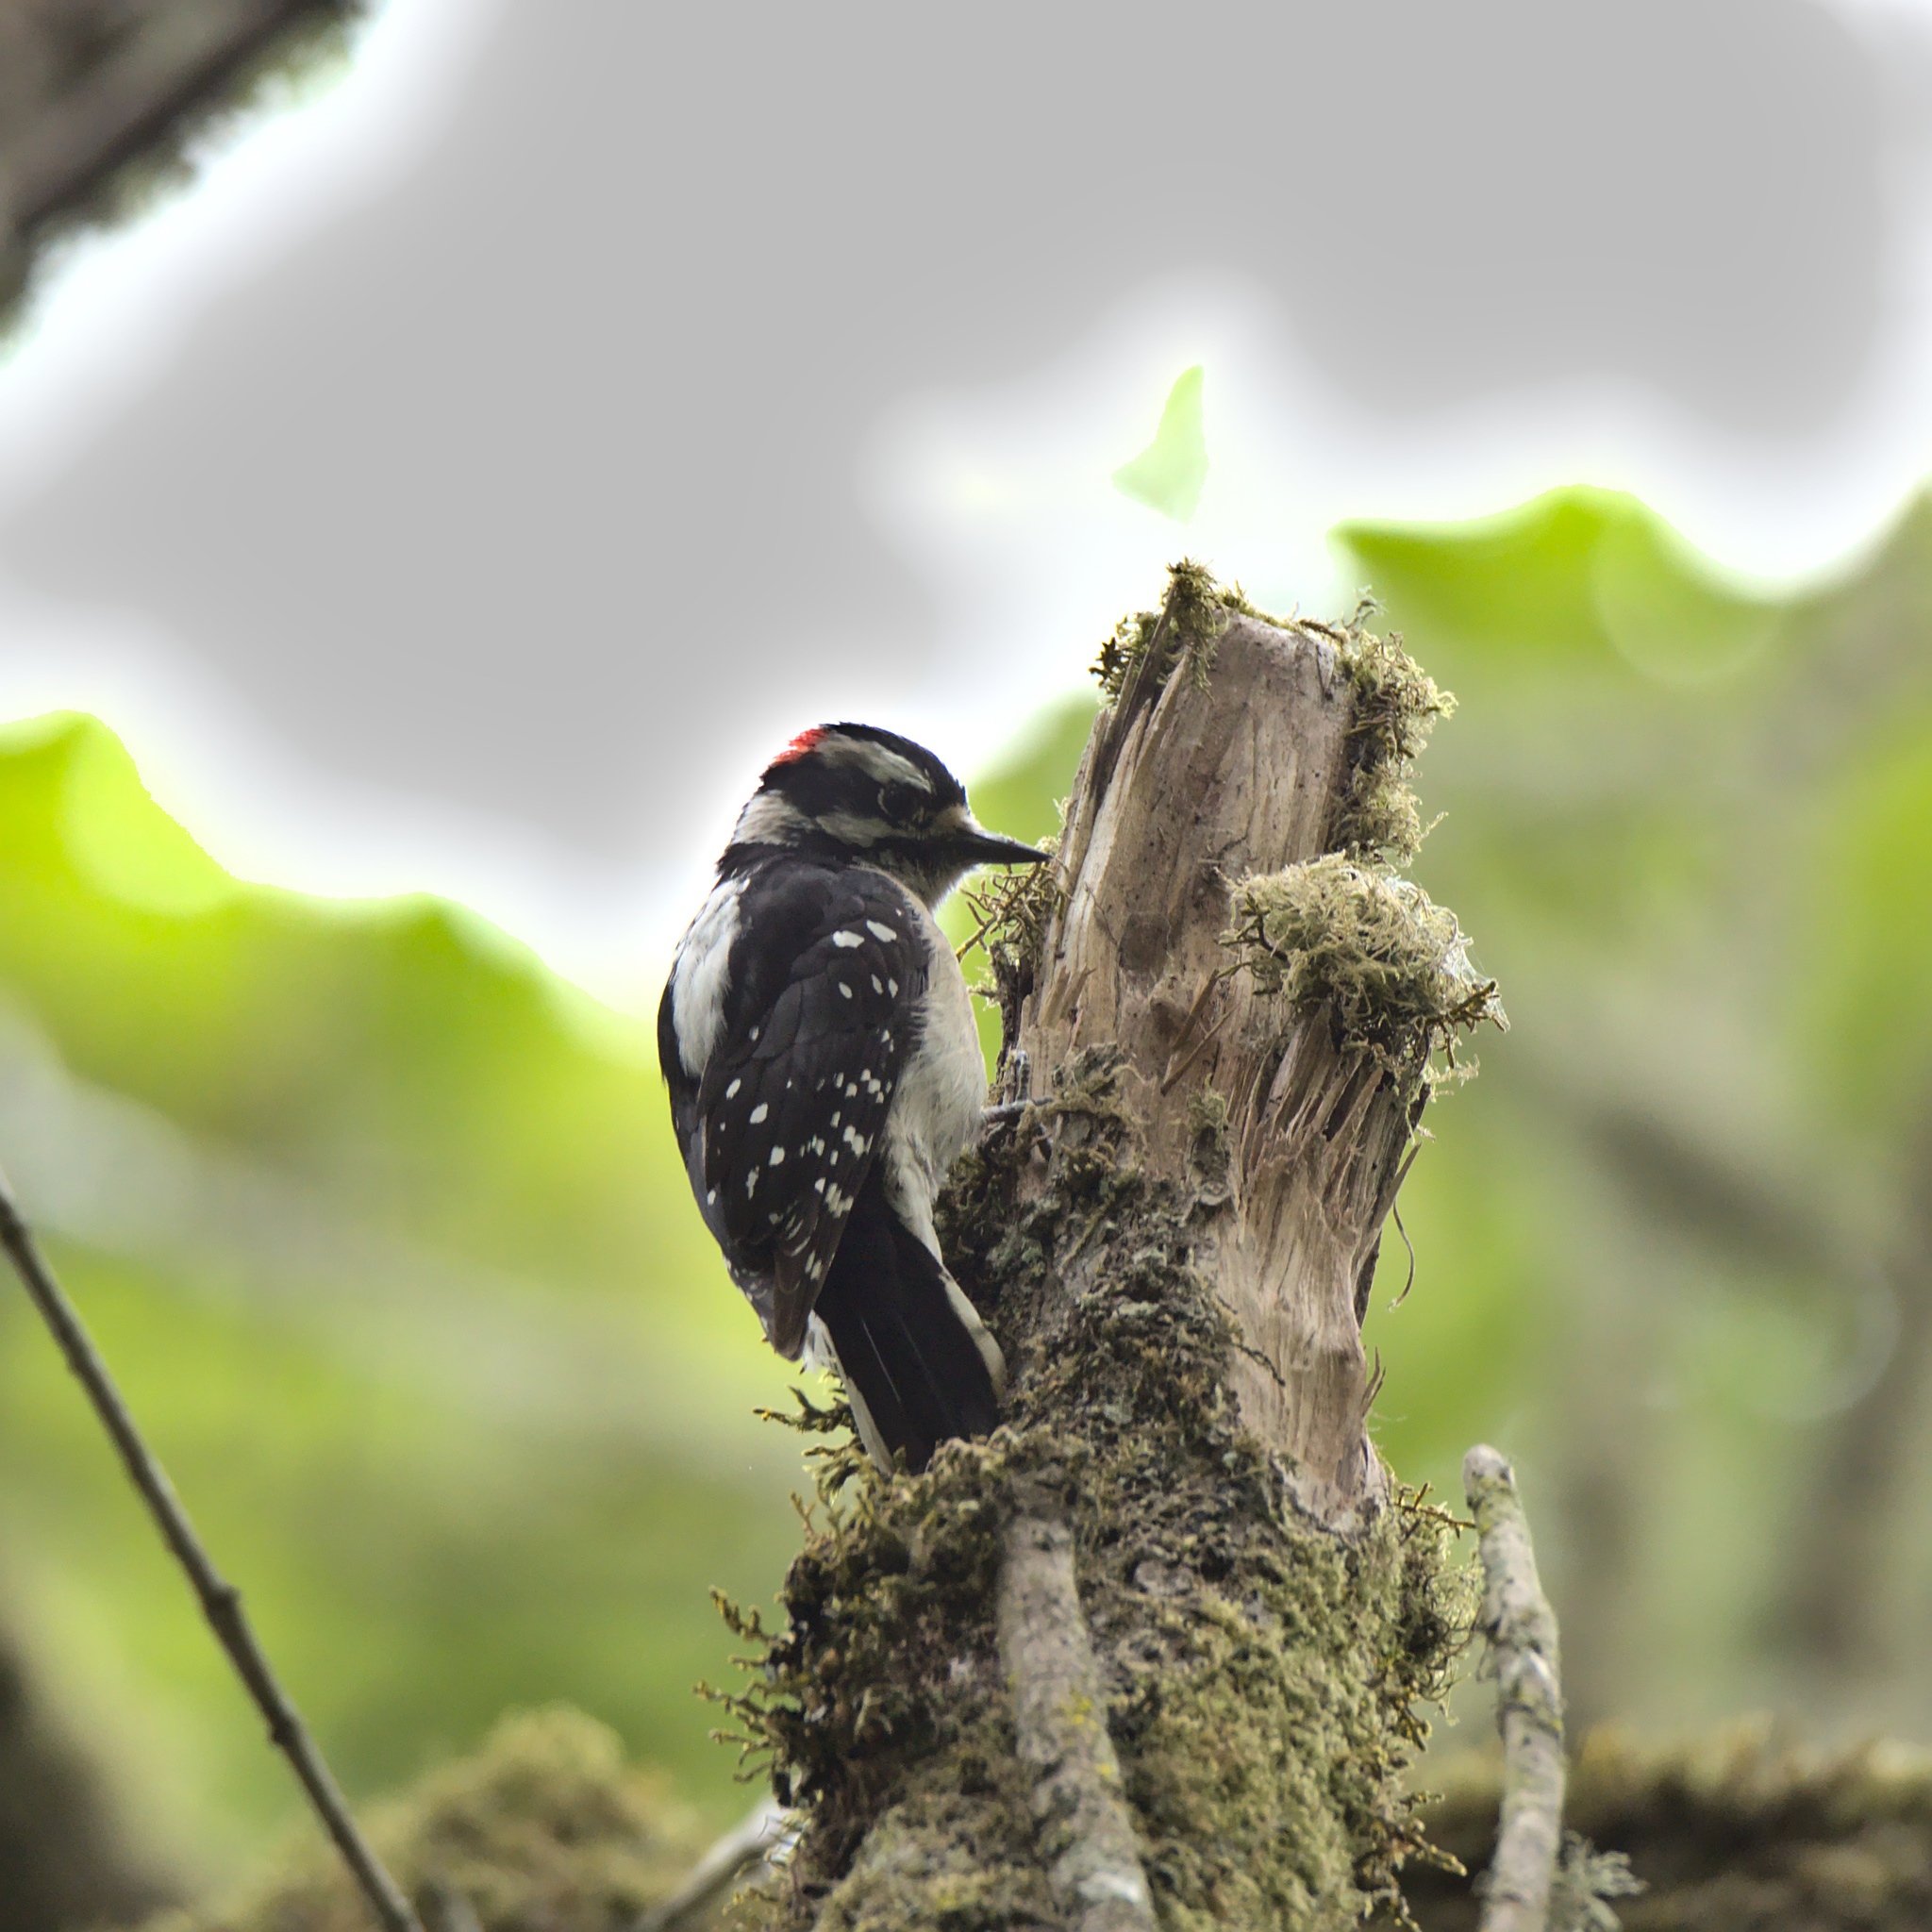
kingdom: Animalia
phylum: Chordata
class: Aves
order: Piciformes
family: Picidae
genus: Dryobates
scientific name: Dryobates pubescens
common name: Downy woodpecker
